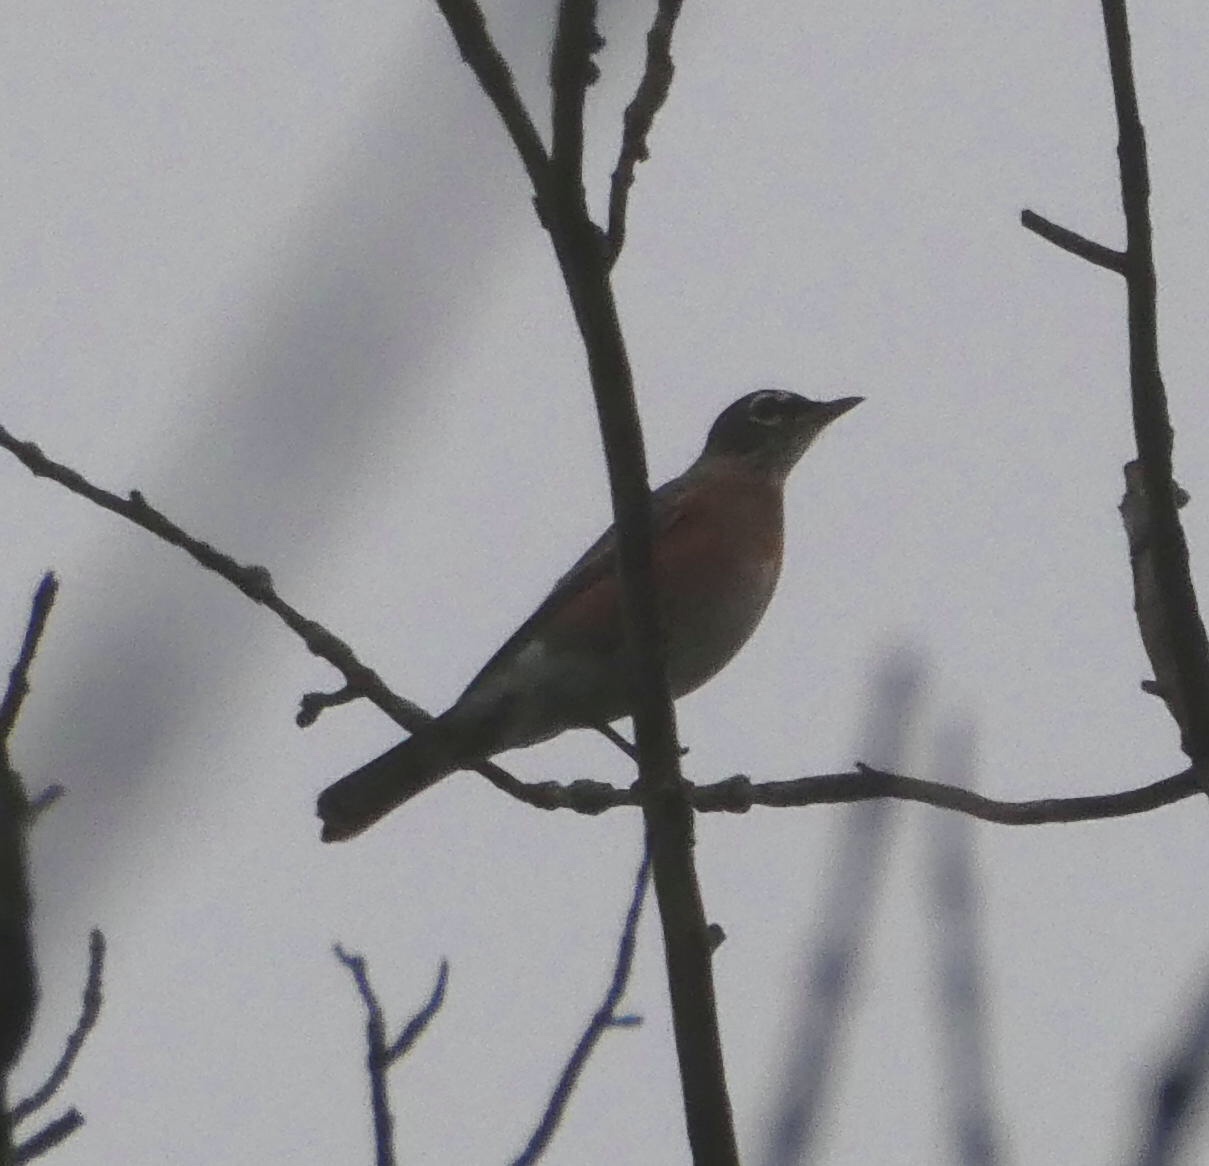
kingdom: Animalia
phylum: Chordata
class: Aves
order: Passeriformes
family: Turdidae
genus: Turdus
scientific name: Turdus migratorius
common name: American robin
